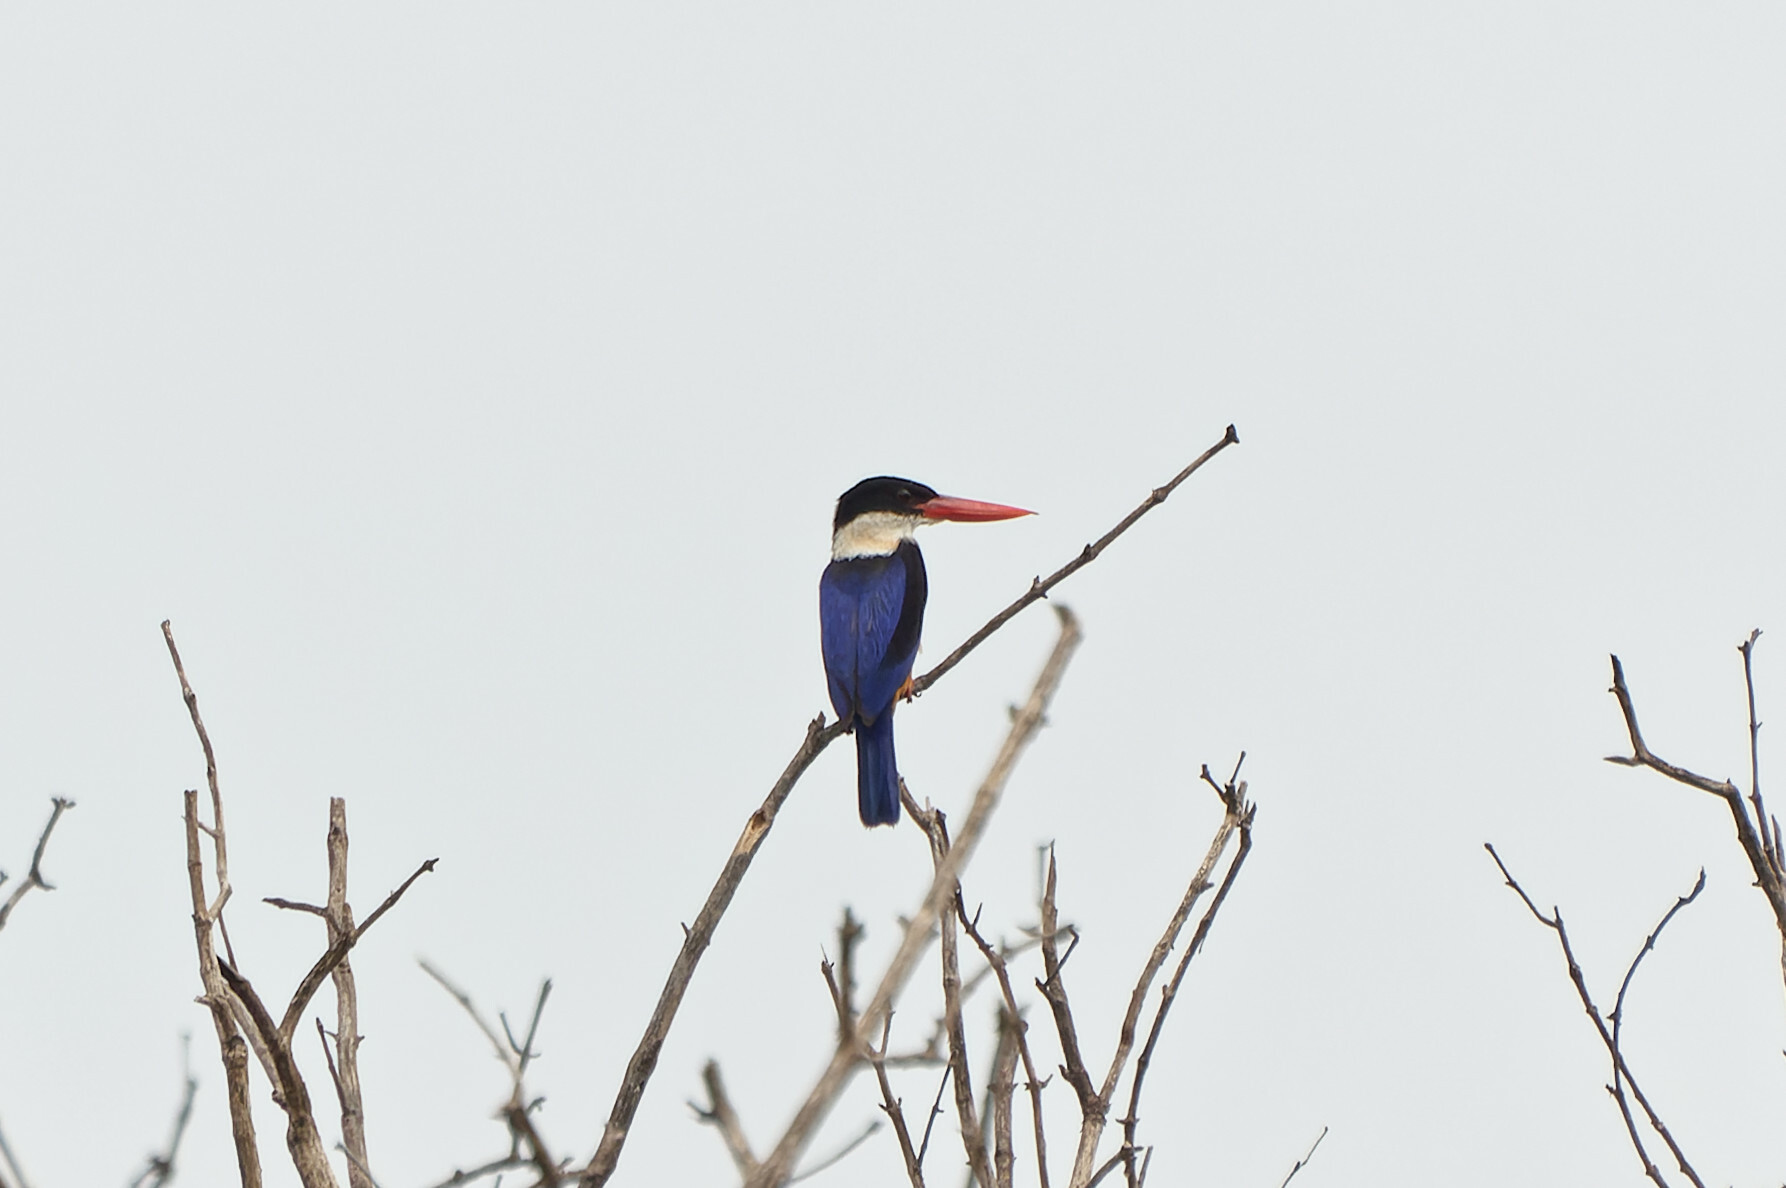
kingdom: Animalia
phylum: Chordata
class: Aves
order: Coraciiformes
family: Alcedinidae
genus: Halcyon
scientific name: Halcyon pileata
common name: Black-capped kingfisher
